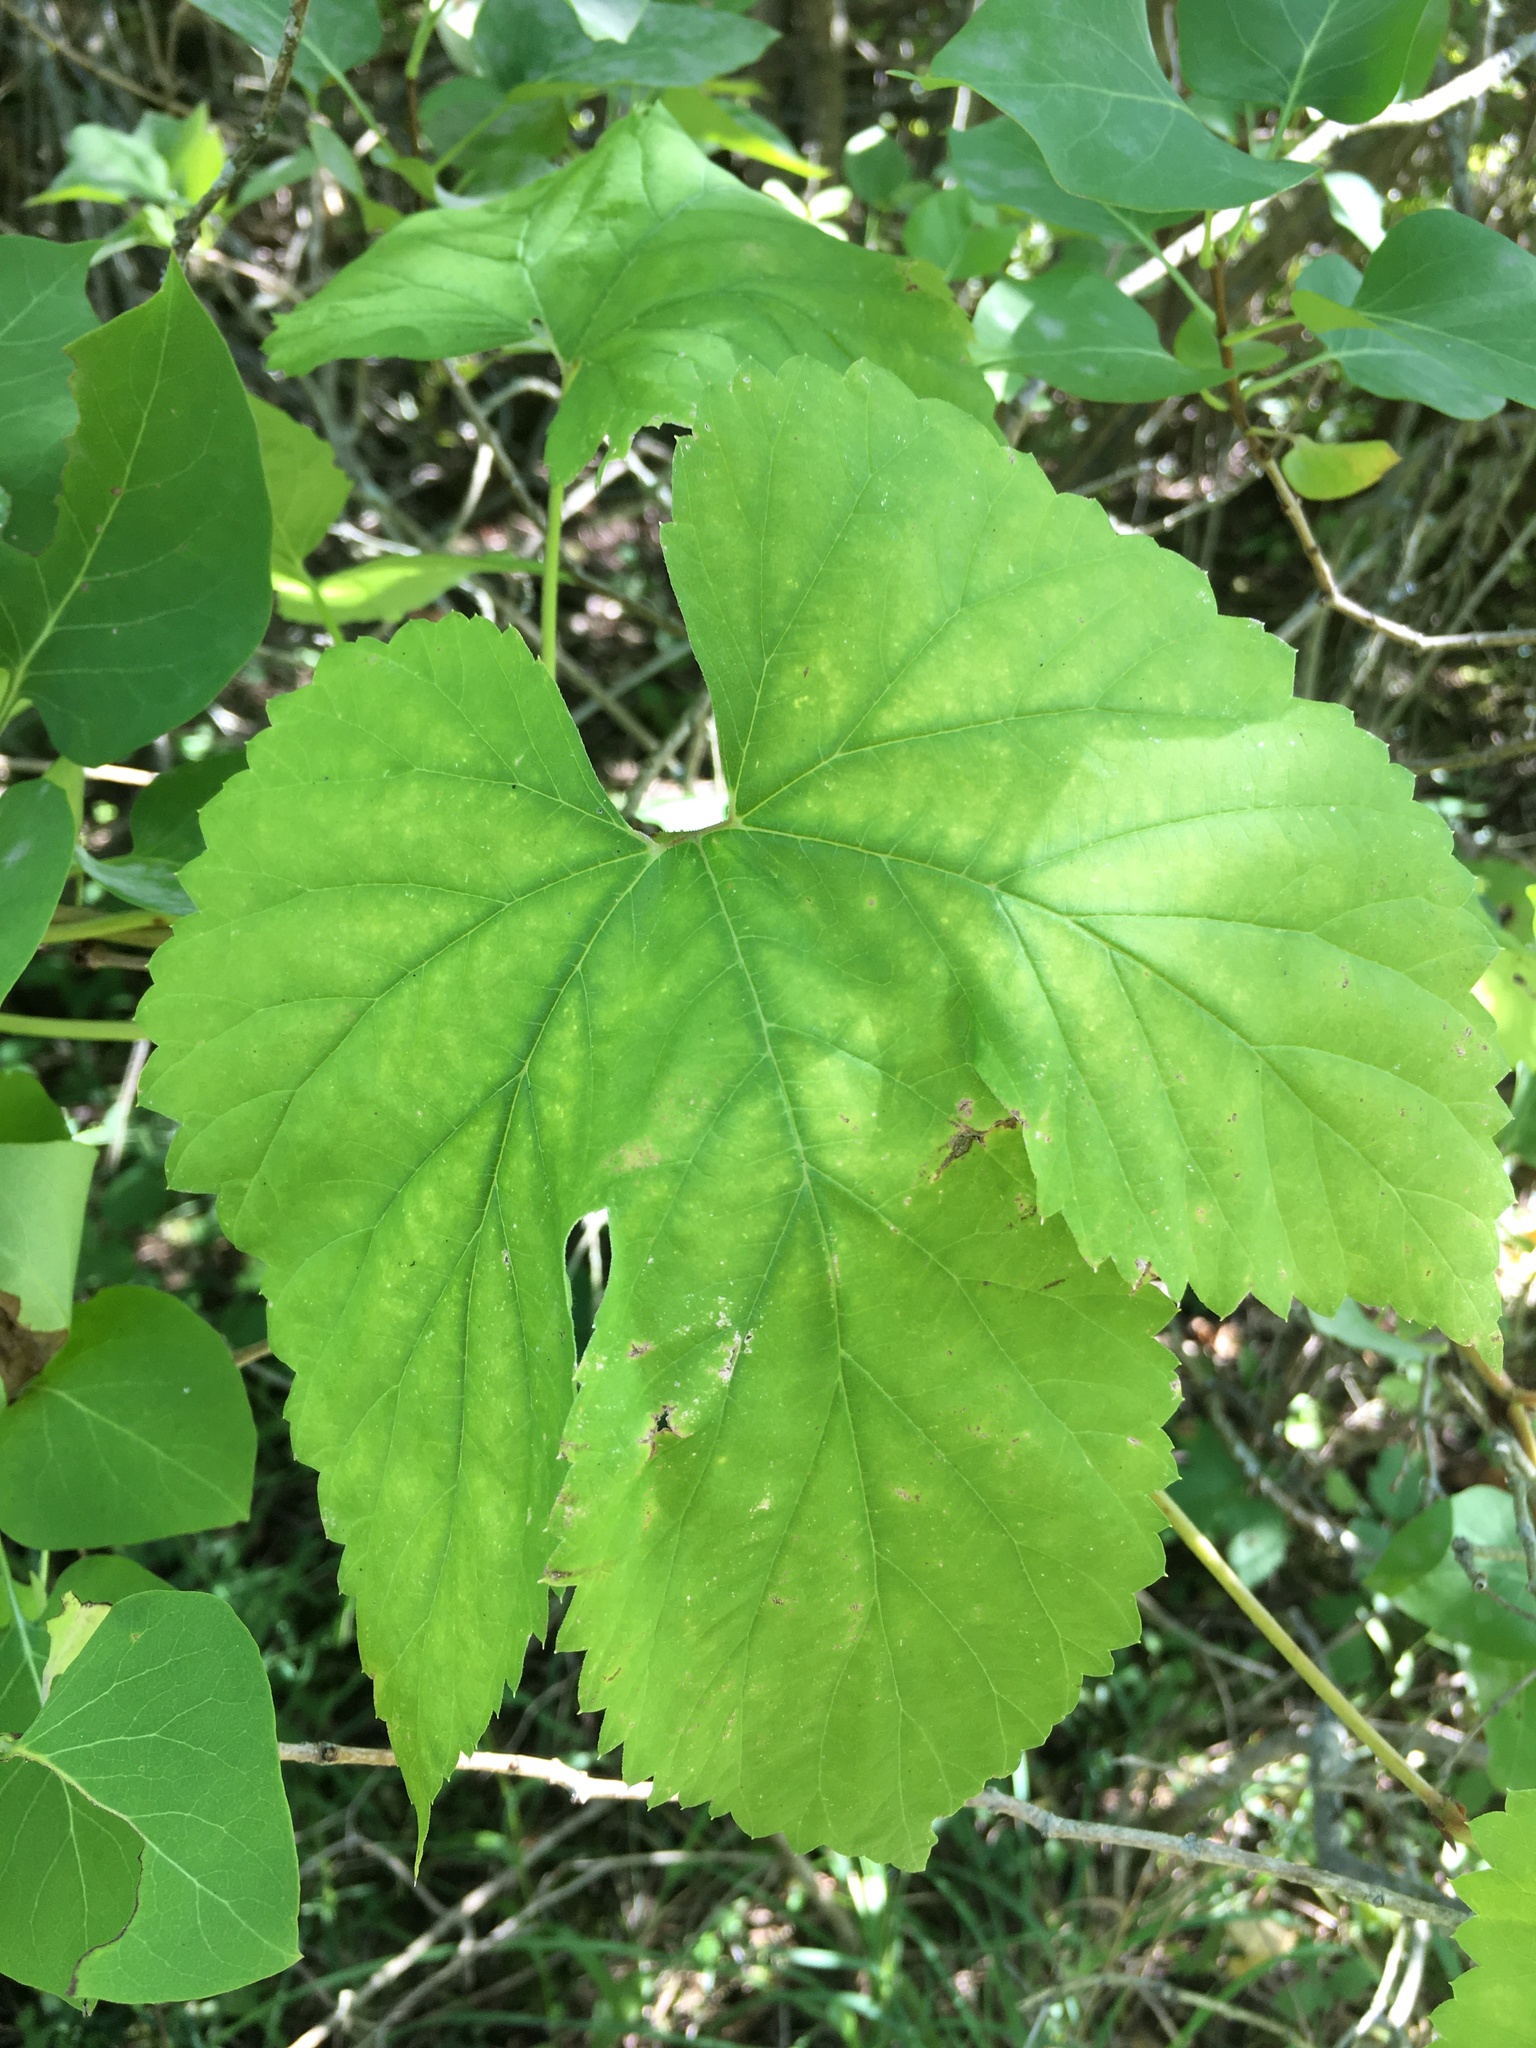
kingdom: Plantae
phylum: Tracheophyta
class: Magnoliopsida
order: Rosales
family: Cannabaceae
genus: Humulus
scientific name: Humulus lupulus
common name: Hop
